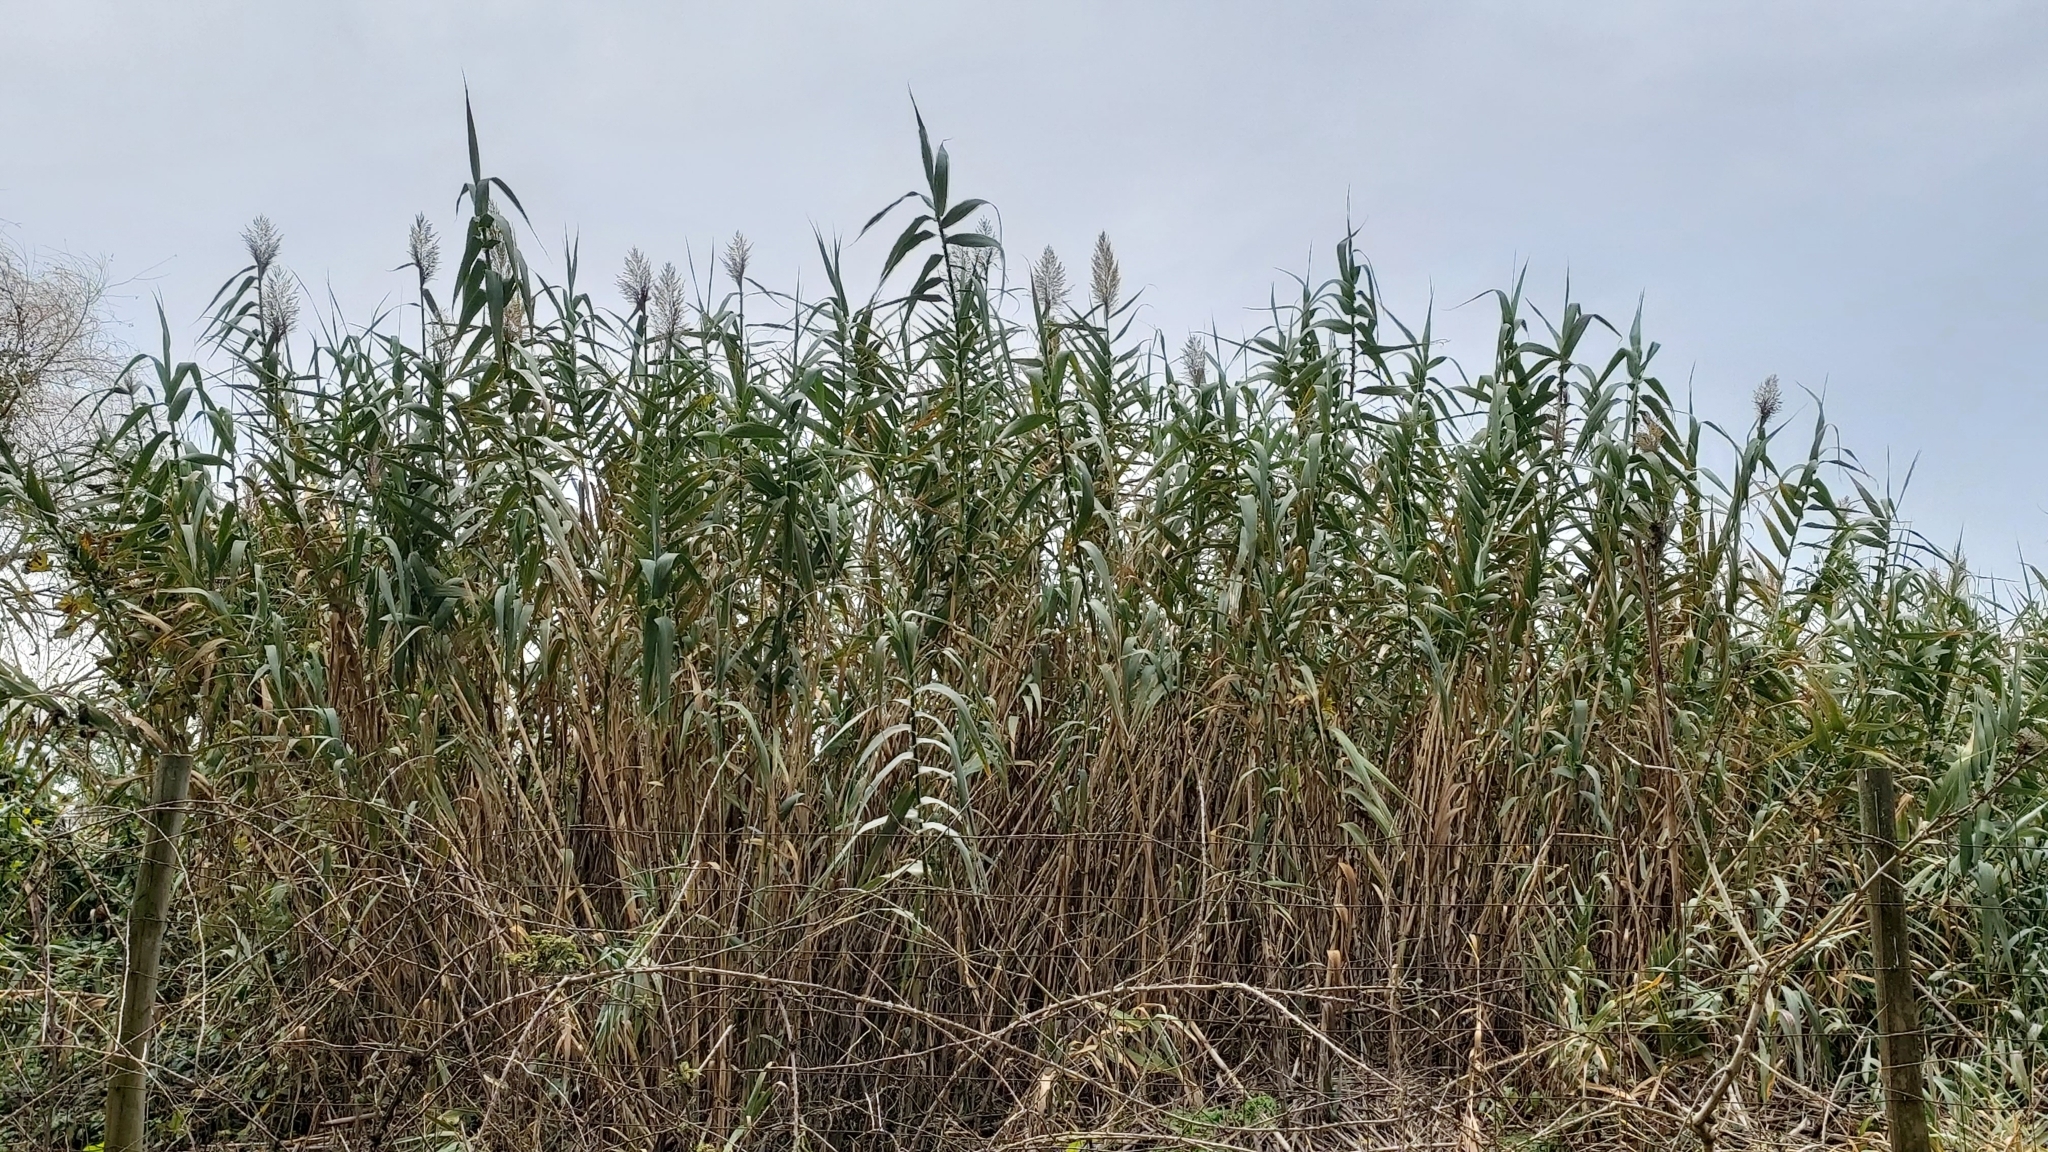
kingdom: Plantae
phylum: Tracheophyta
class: Liliopsida
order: Poales
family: Poaceae
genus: Arundo
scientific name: Arundo donax
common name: Giant reed
